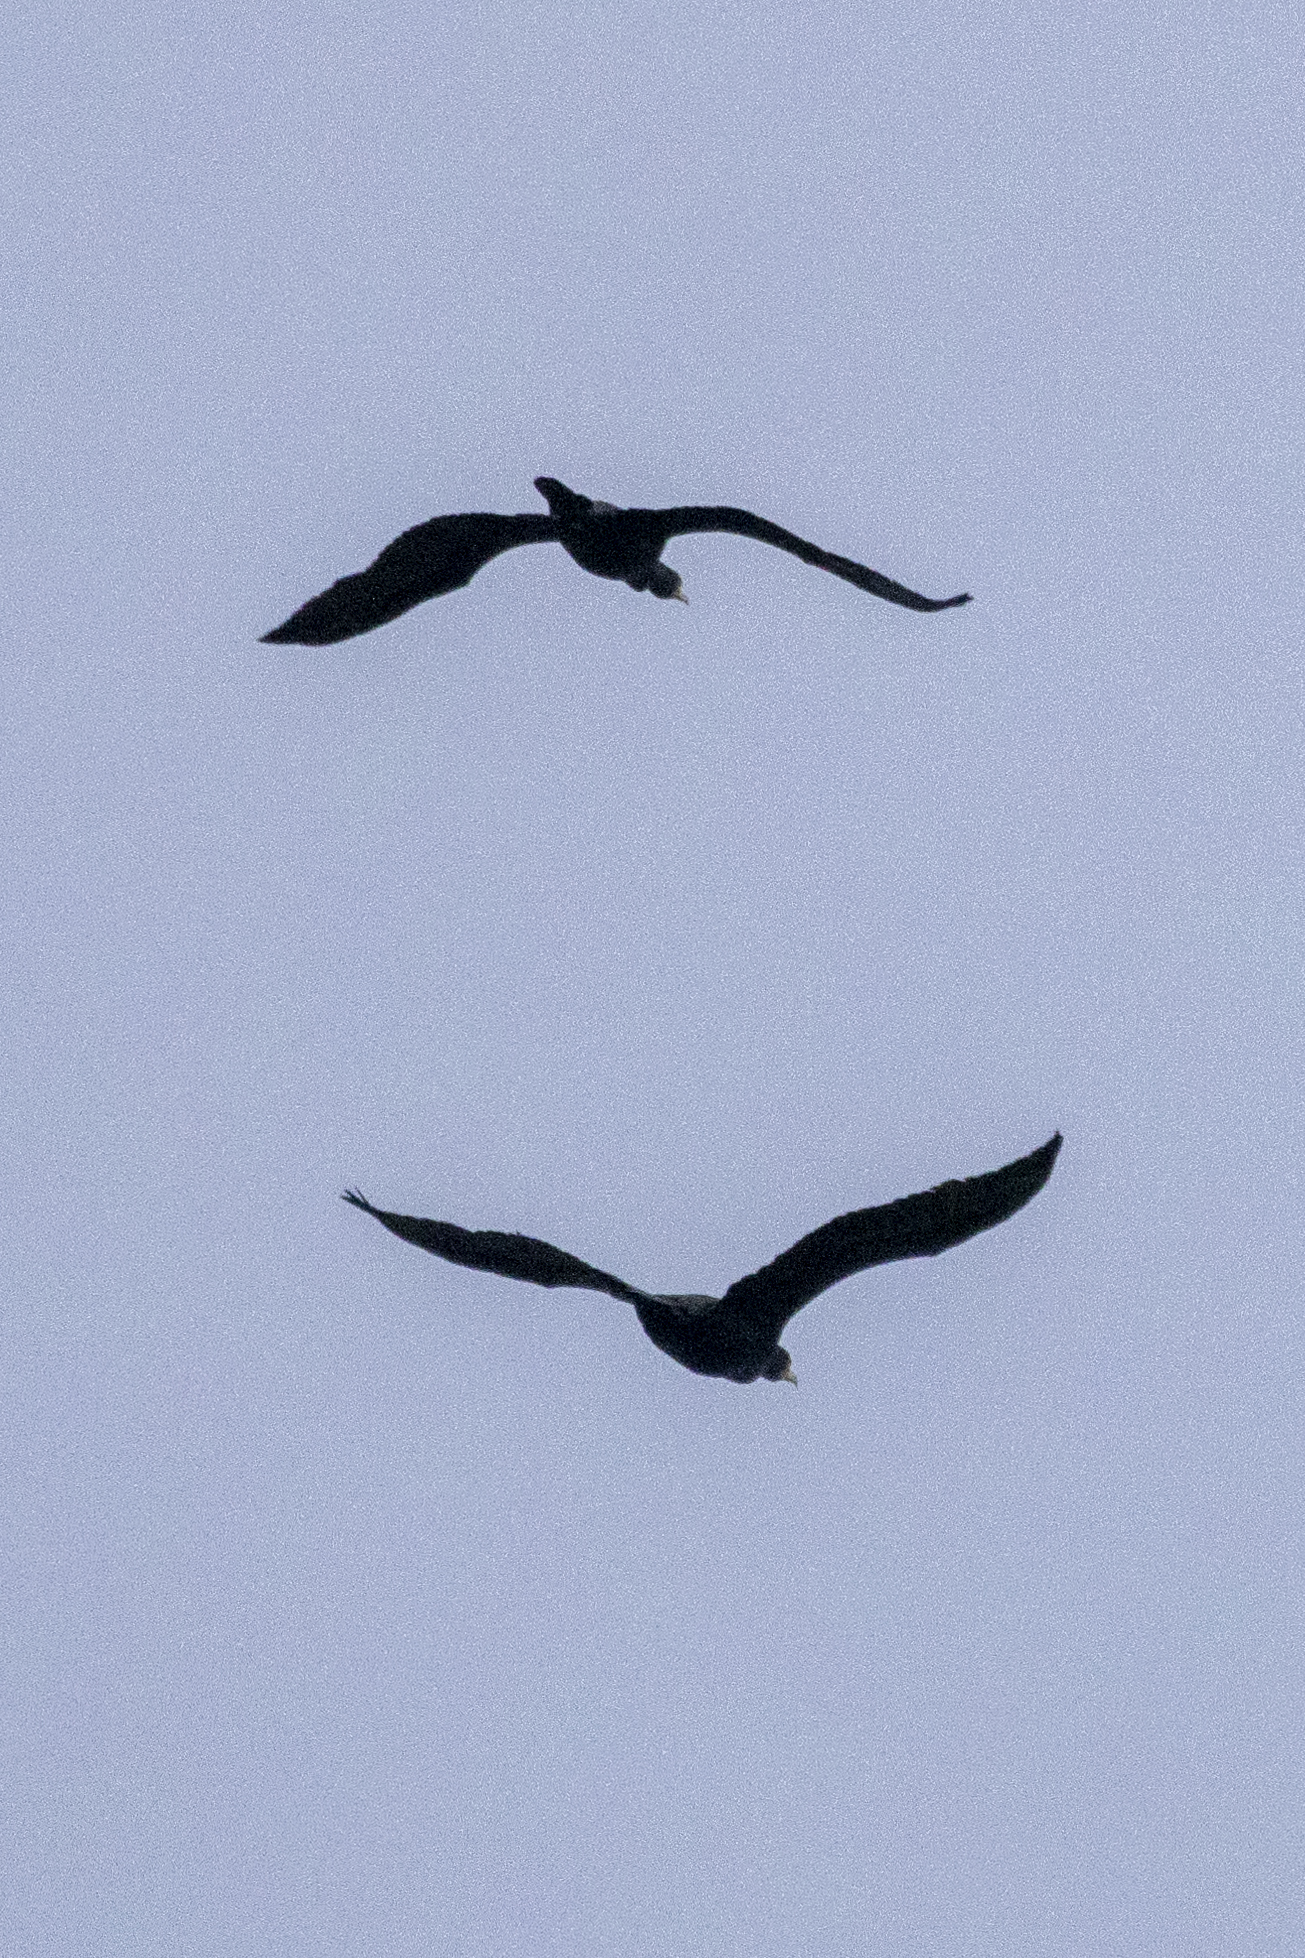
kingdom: Animalia
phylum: Chordata
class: Aves
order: Suliformes
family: Phalacrocoracidae
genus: Phalacrocorax
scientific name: Phalacrocorax carbo
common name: Great cormorant
